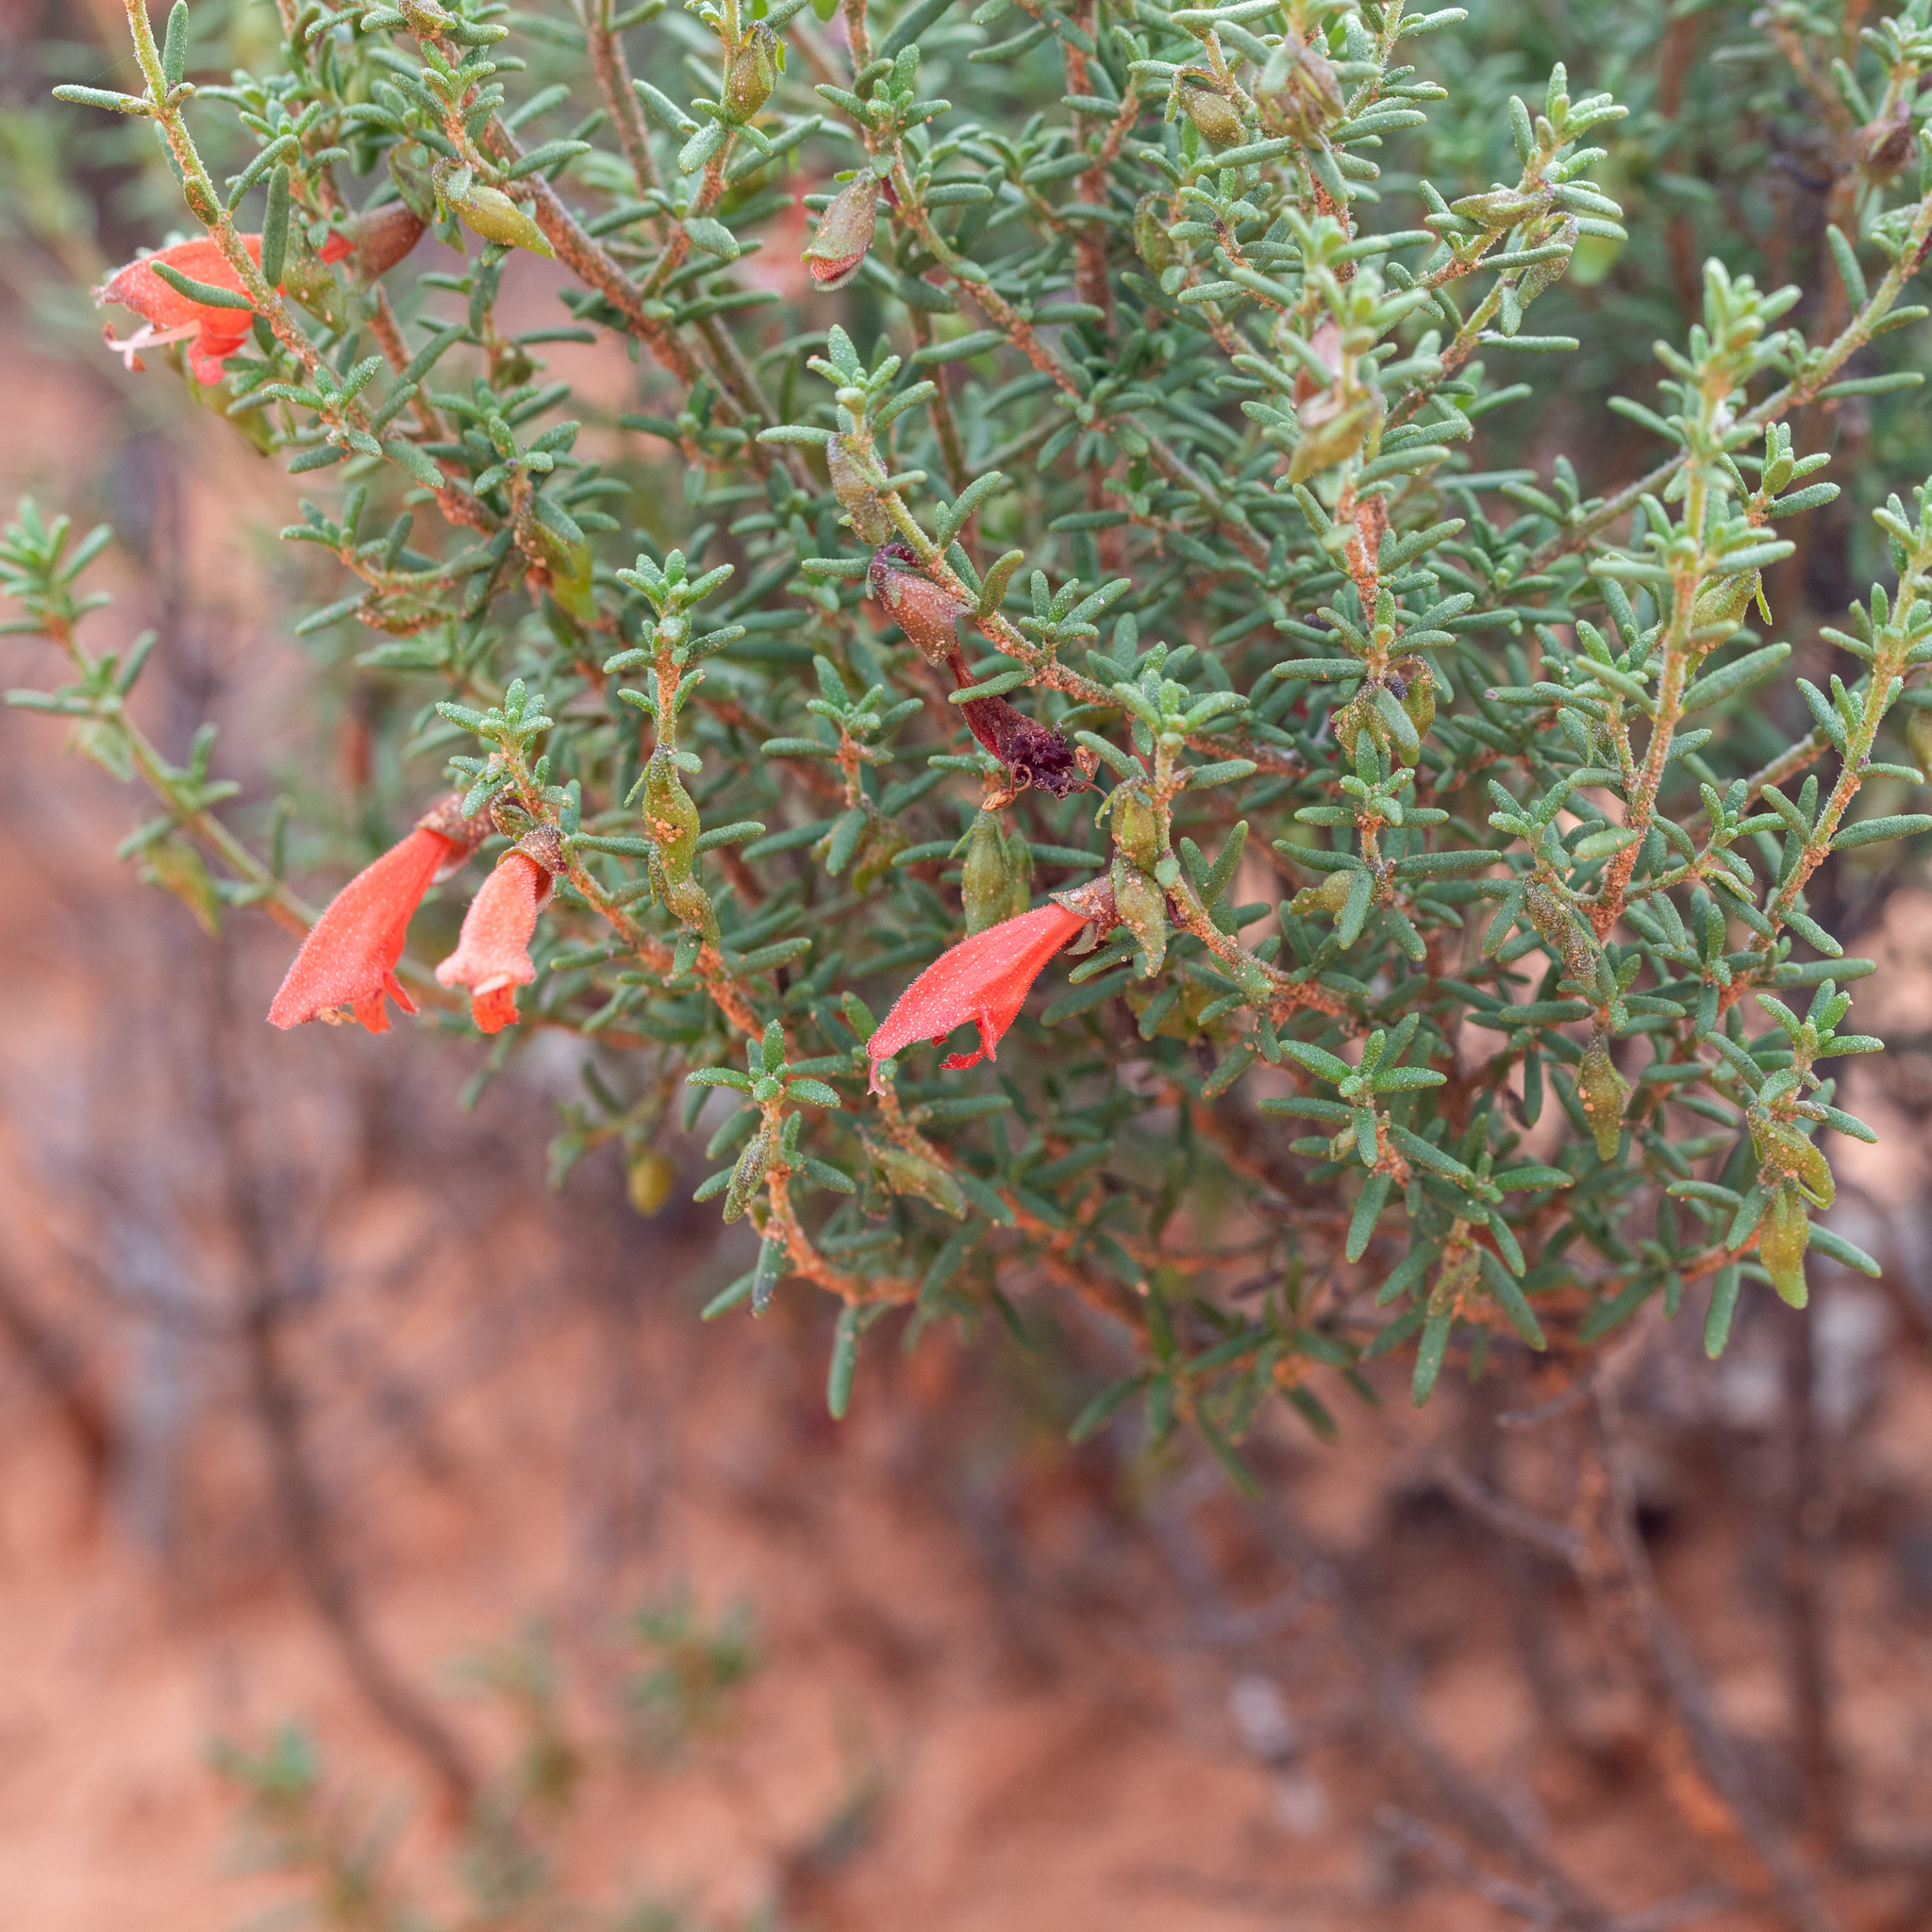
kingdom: Plantae
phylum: Tracheophyta
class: Magnoliopsida
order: Lamiales
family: Lamiaceae
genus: Prostanthera
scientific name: Prostanthera aspalathoides
